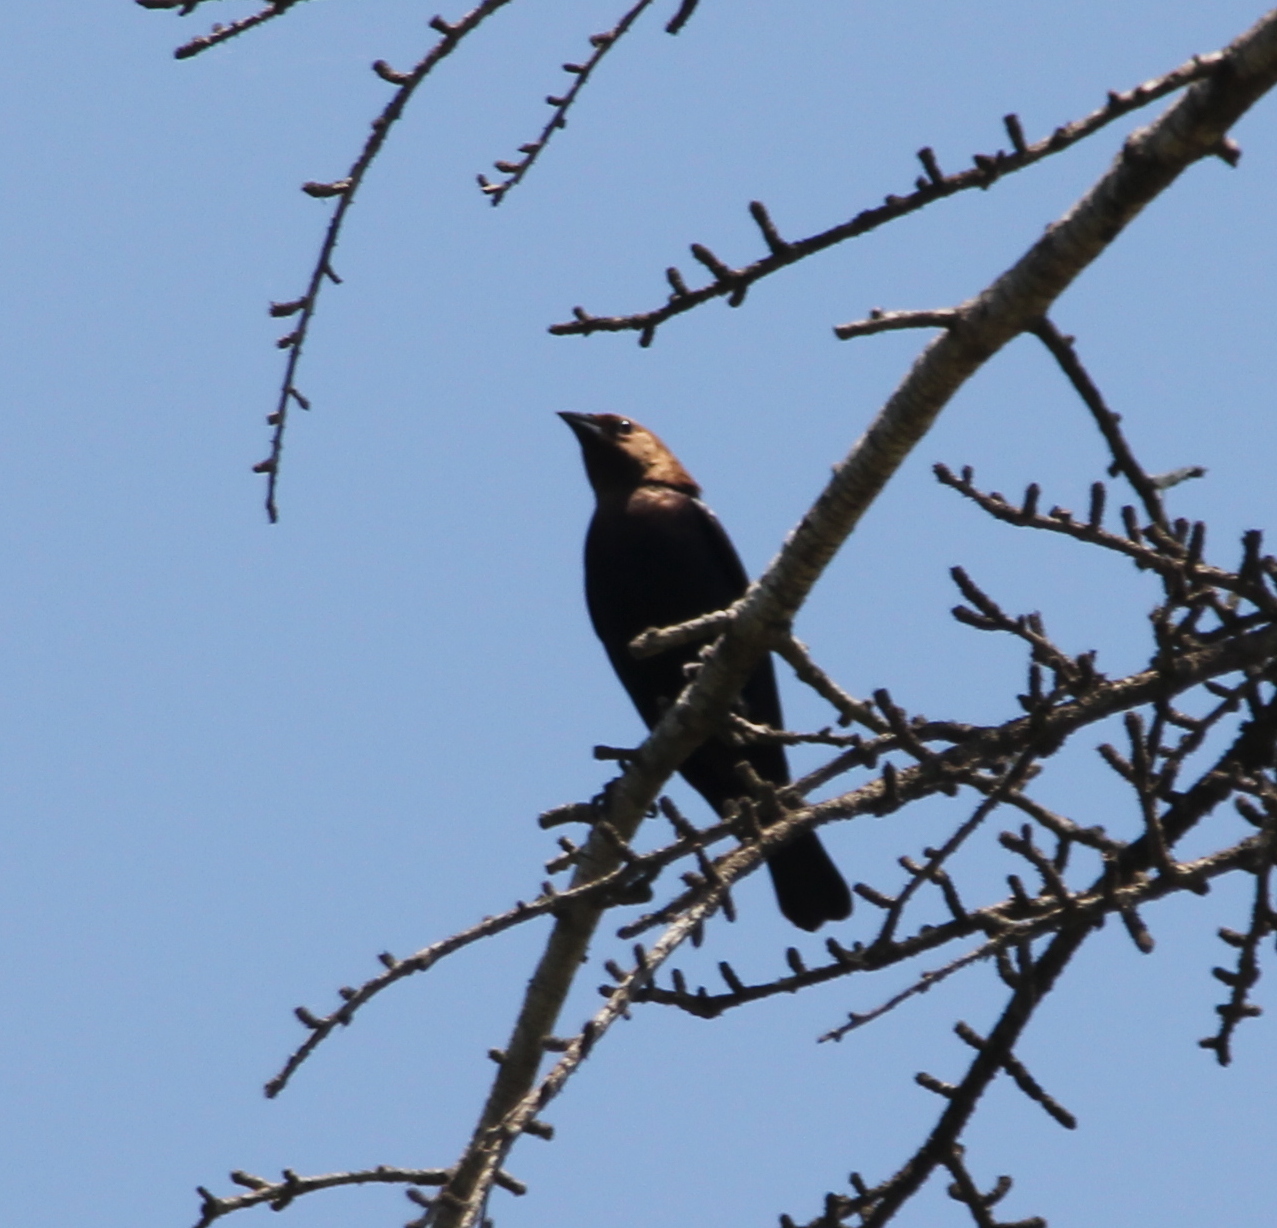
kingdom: Animalia
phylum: Chordata
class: Aves
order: Passeriformes
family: Icteridae
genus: Molothrus
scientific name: Molothrus ater
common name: Brown-headed cowbird
